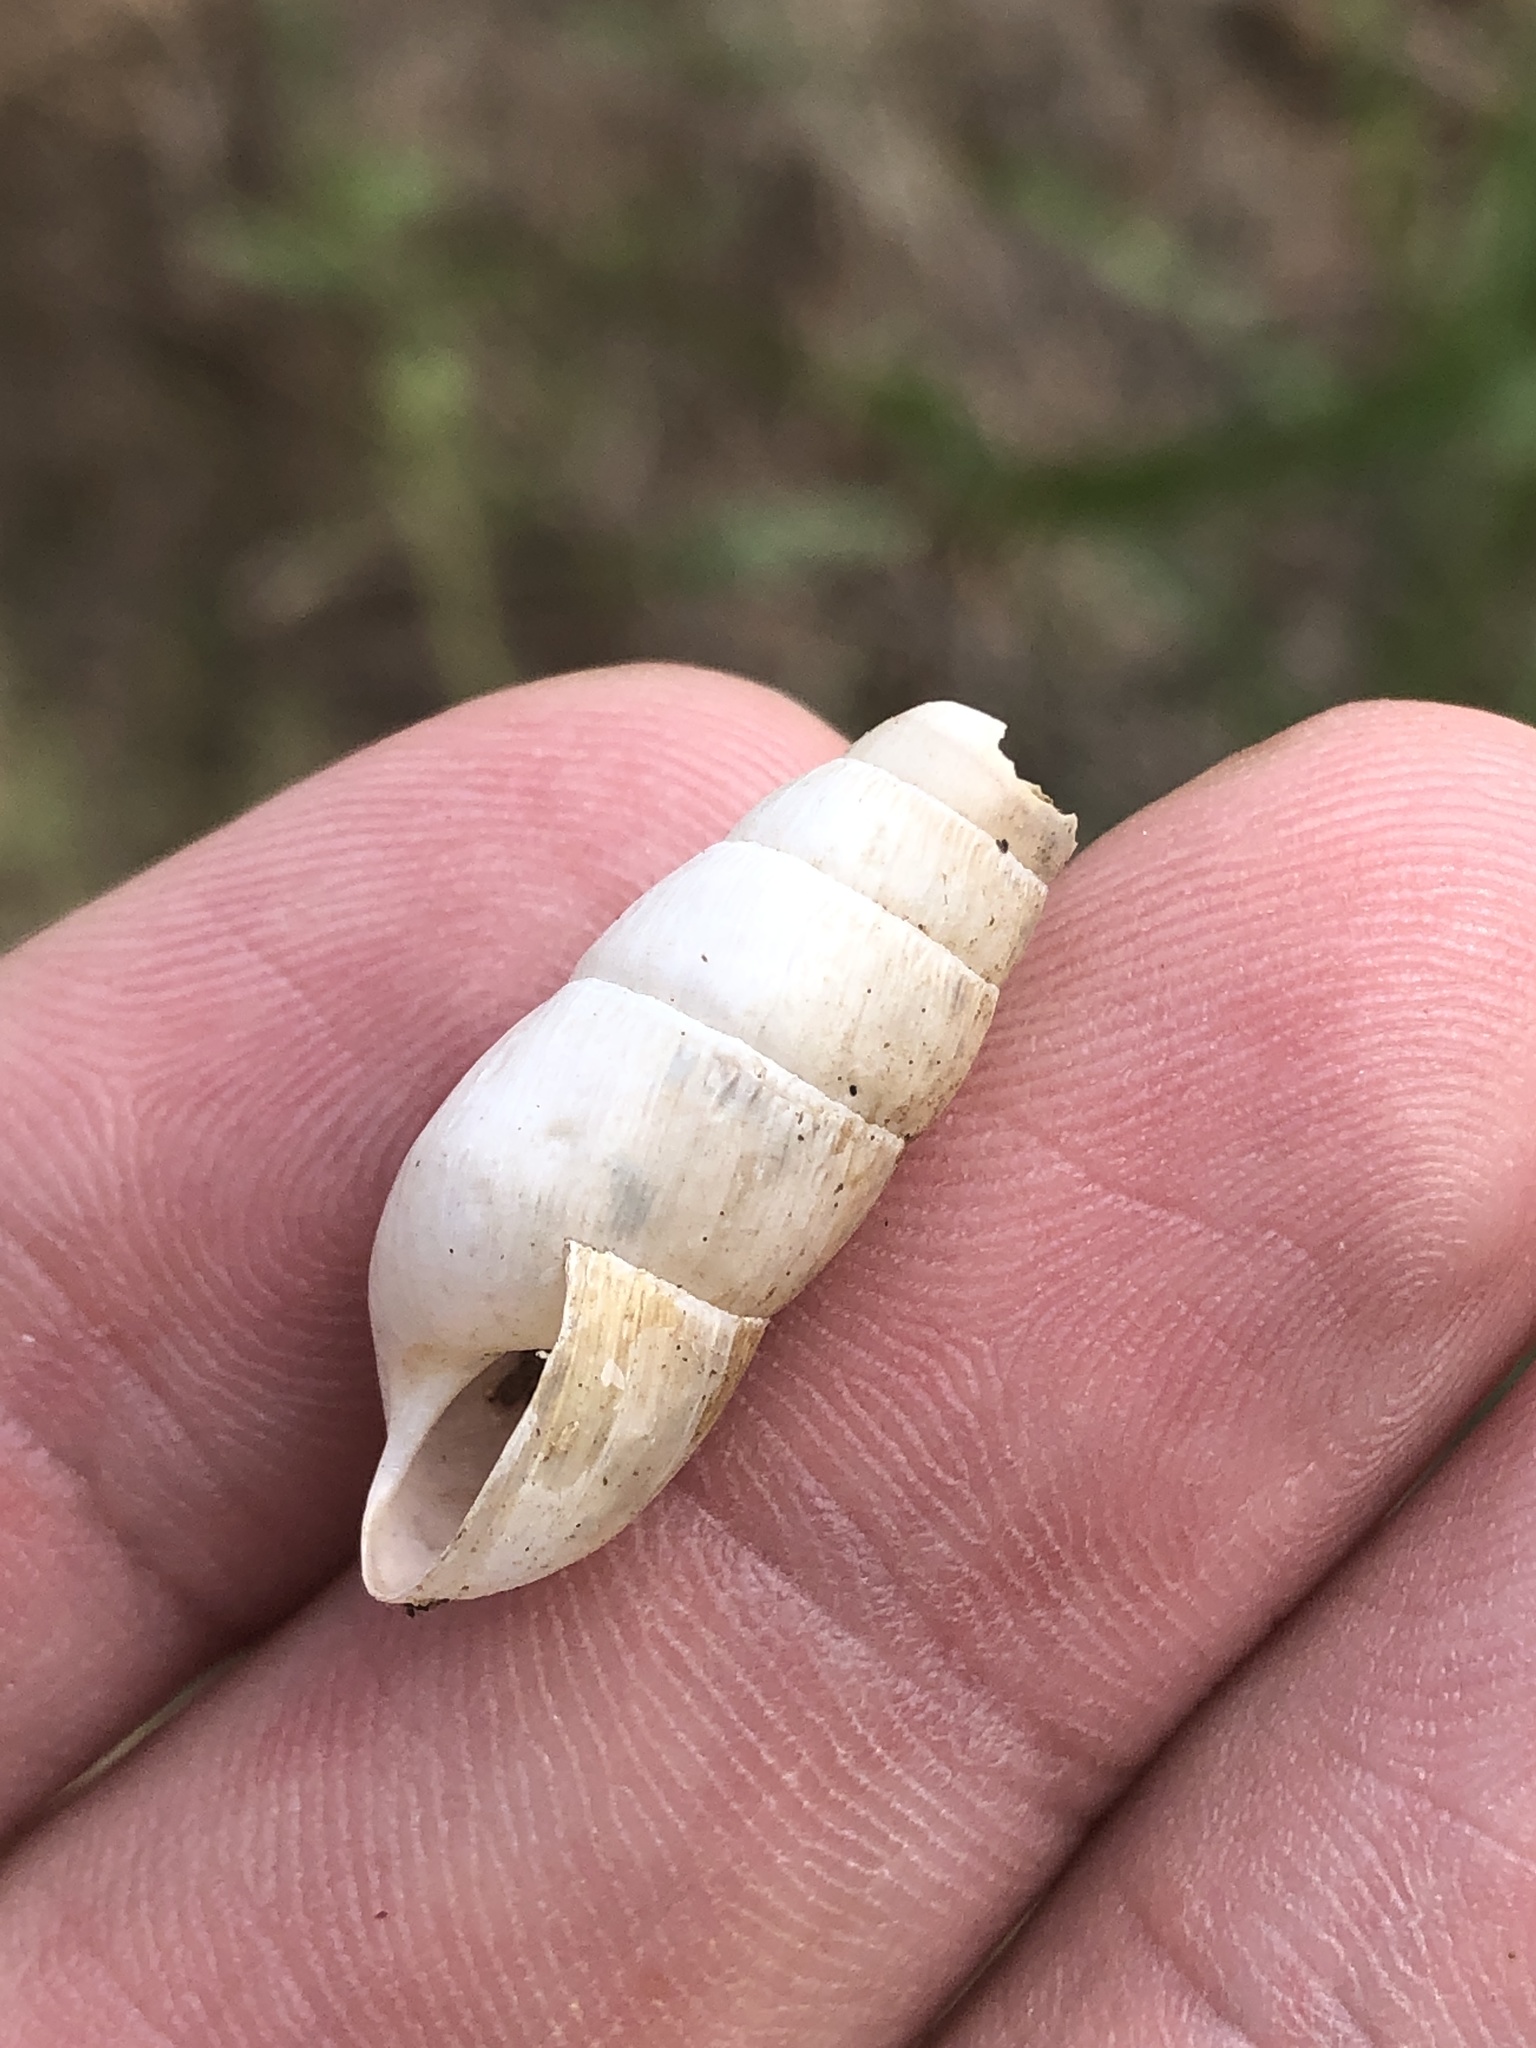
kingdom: Animalia
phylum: Mollusca
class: Gastropoda
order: Stylommatophora
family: Achatinidae
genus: Rumina
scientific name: Rumina decollata
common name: Decollate snail
